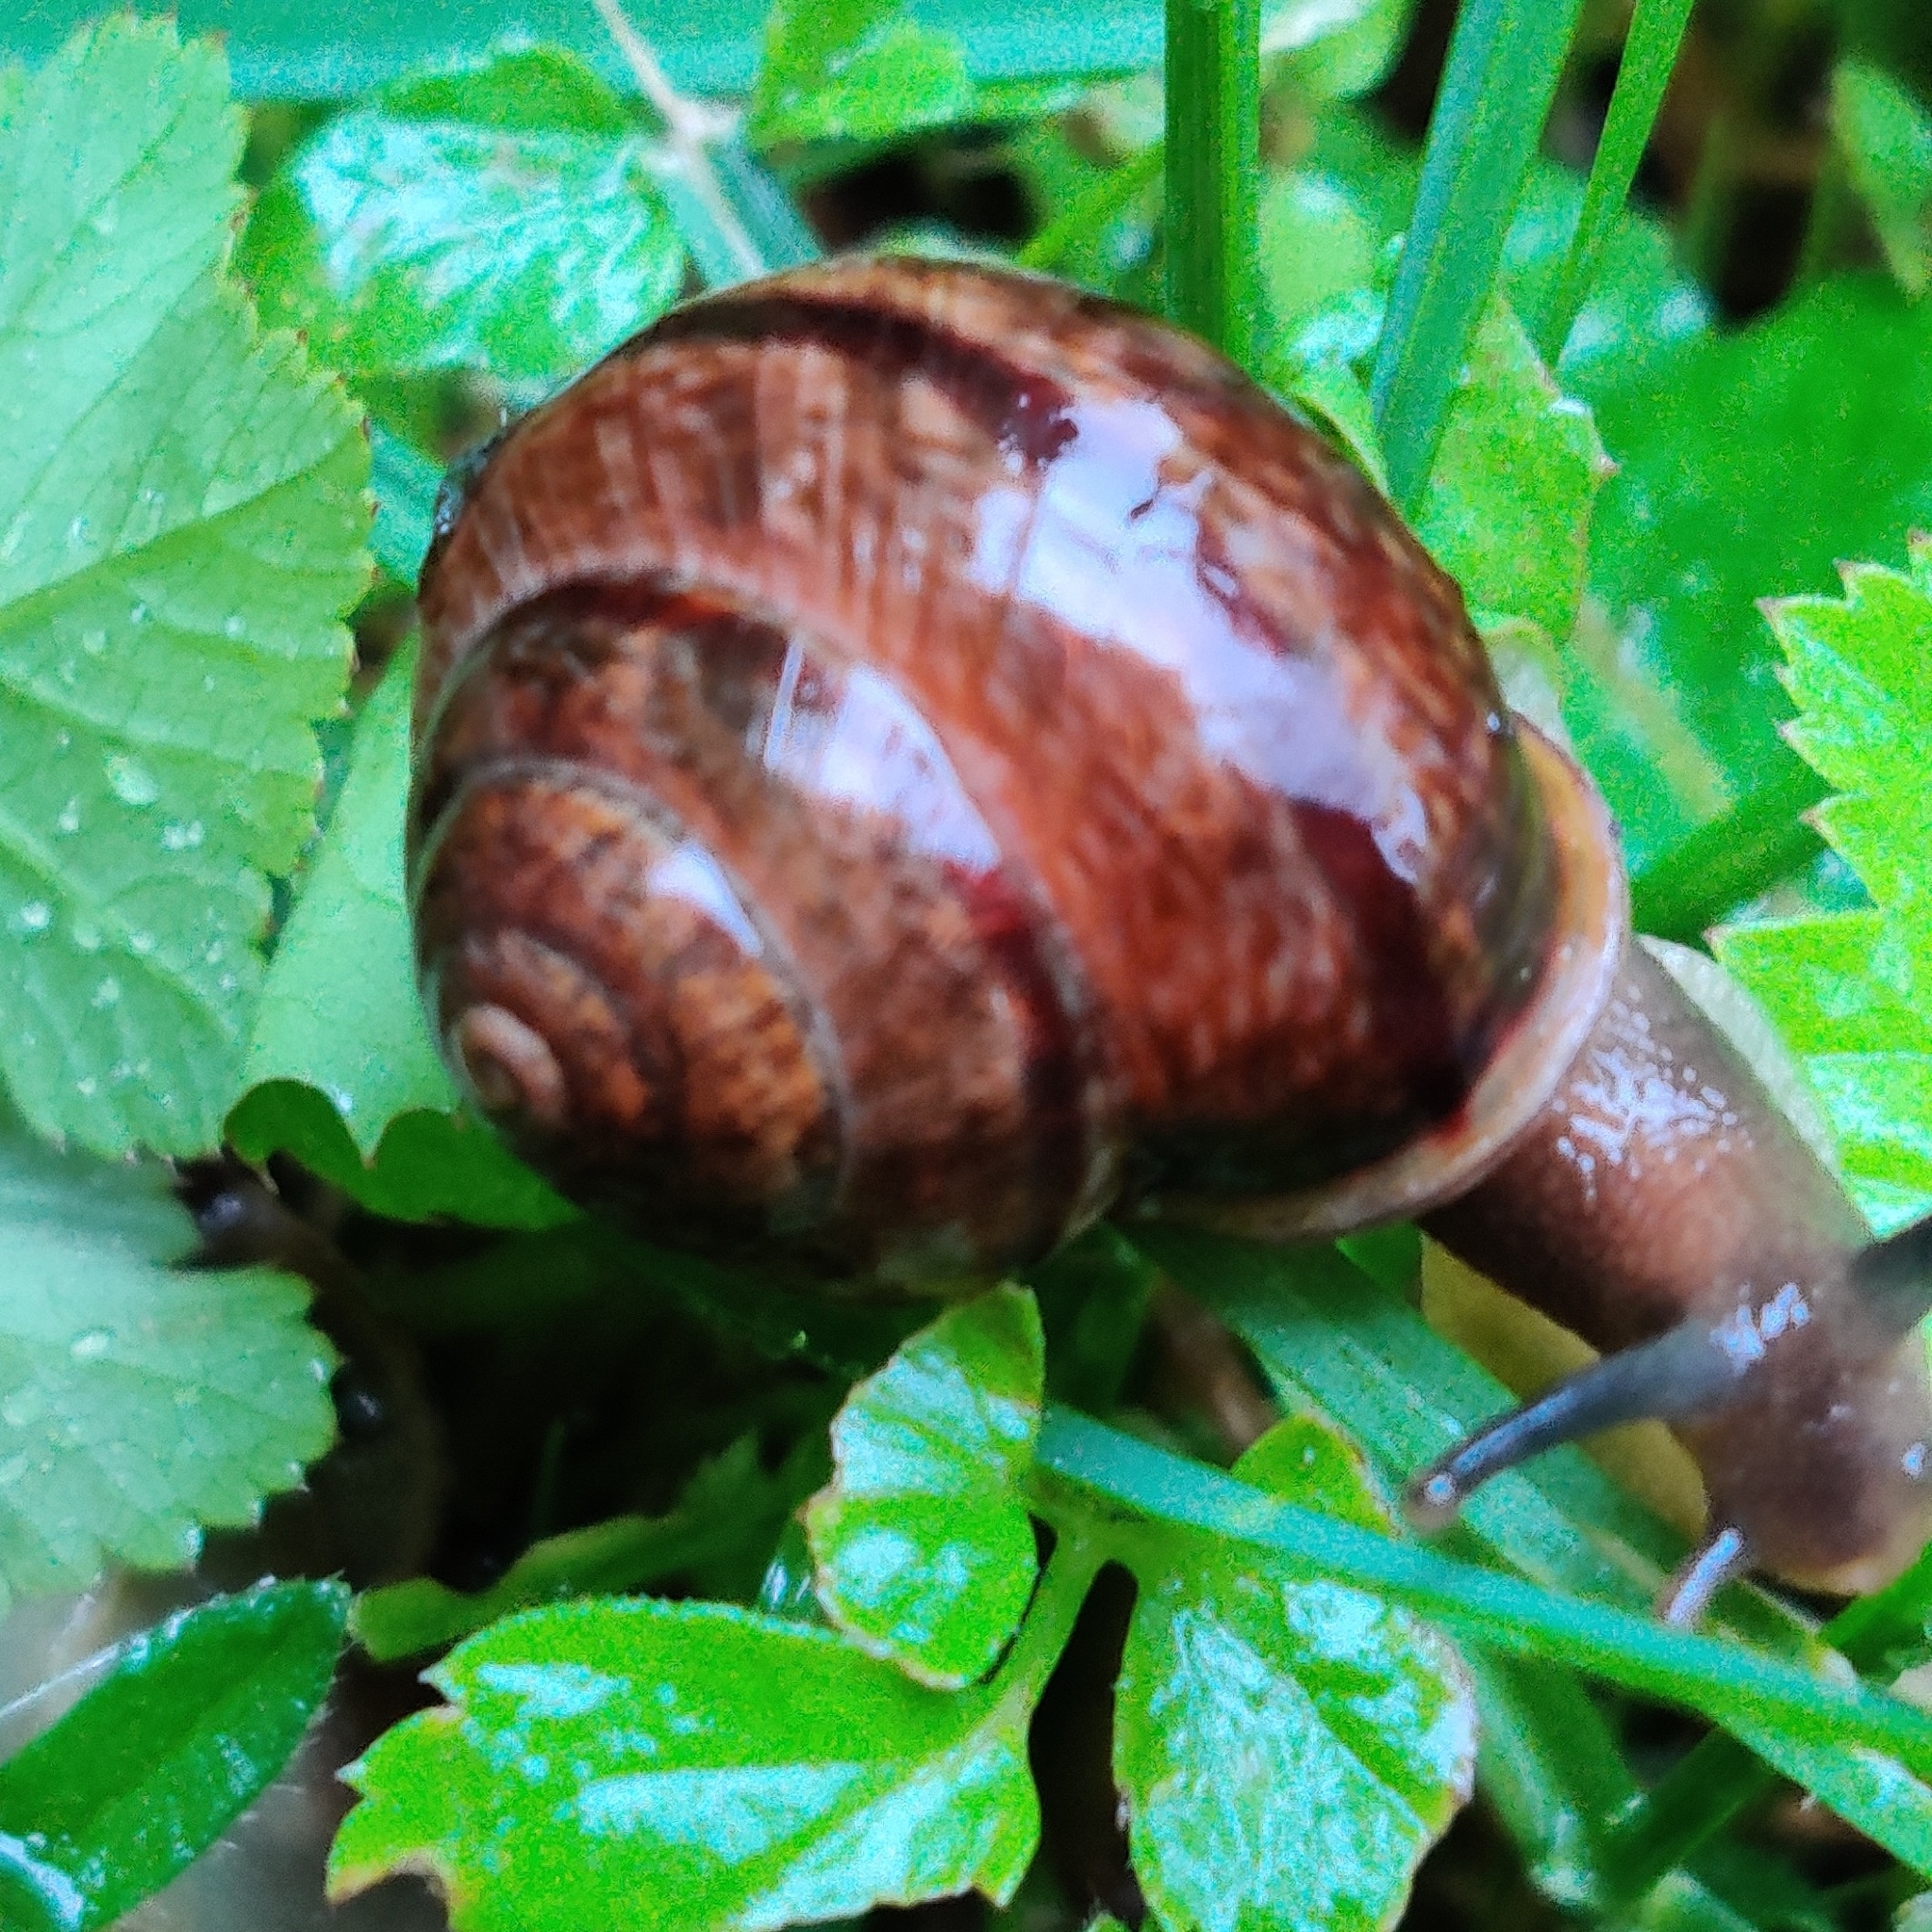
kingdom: Animalia
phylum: Mollusca
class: Gastropoda
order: Stylommatophora
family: Helicidae
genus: Arianta
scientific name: Arianta arbustorum
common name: Copse snail
